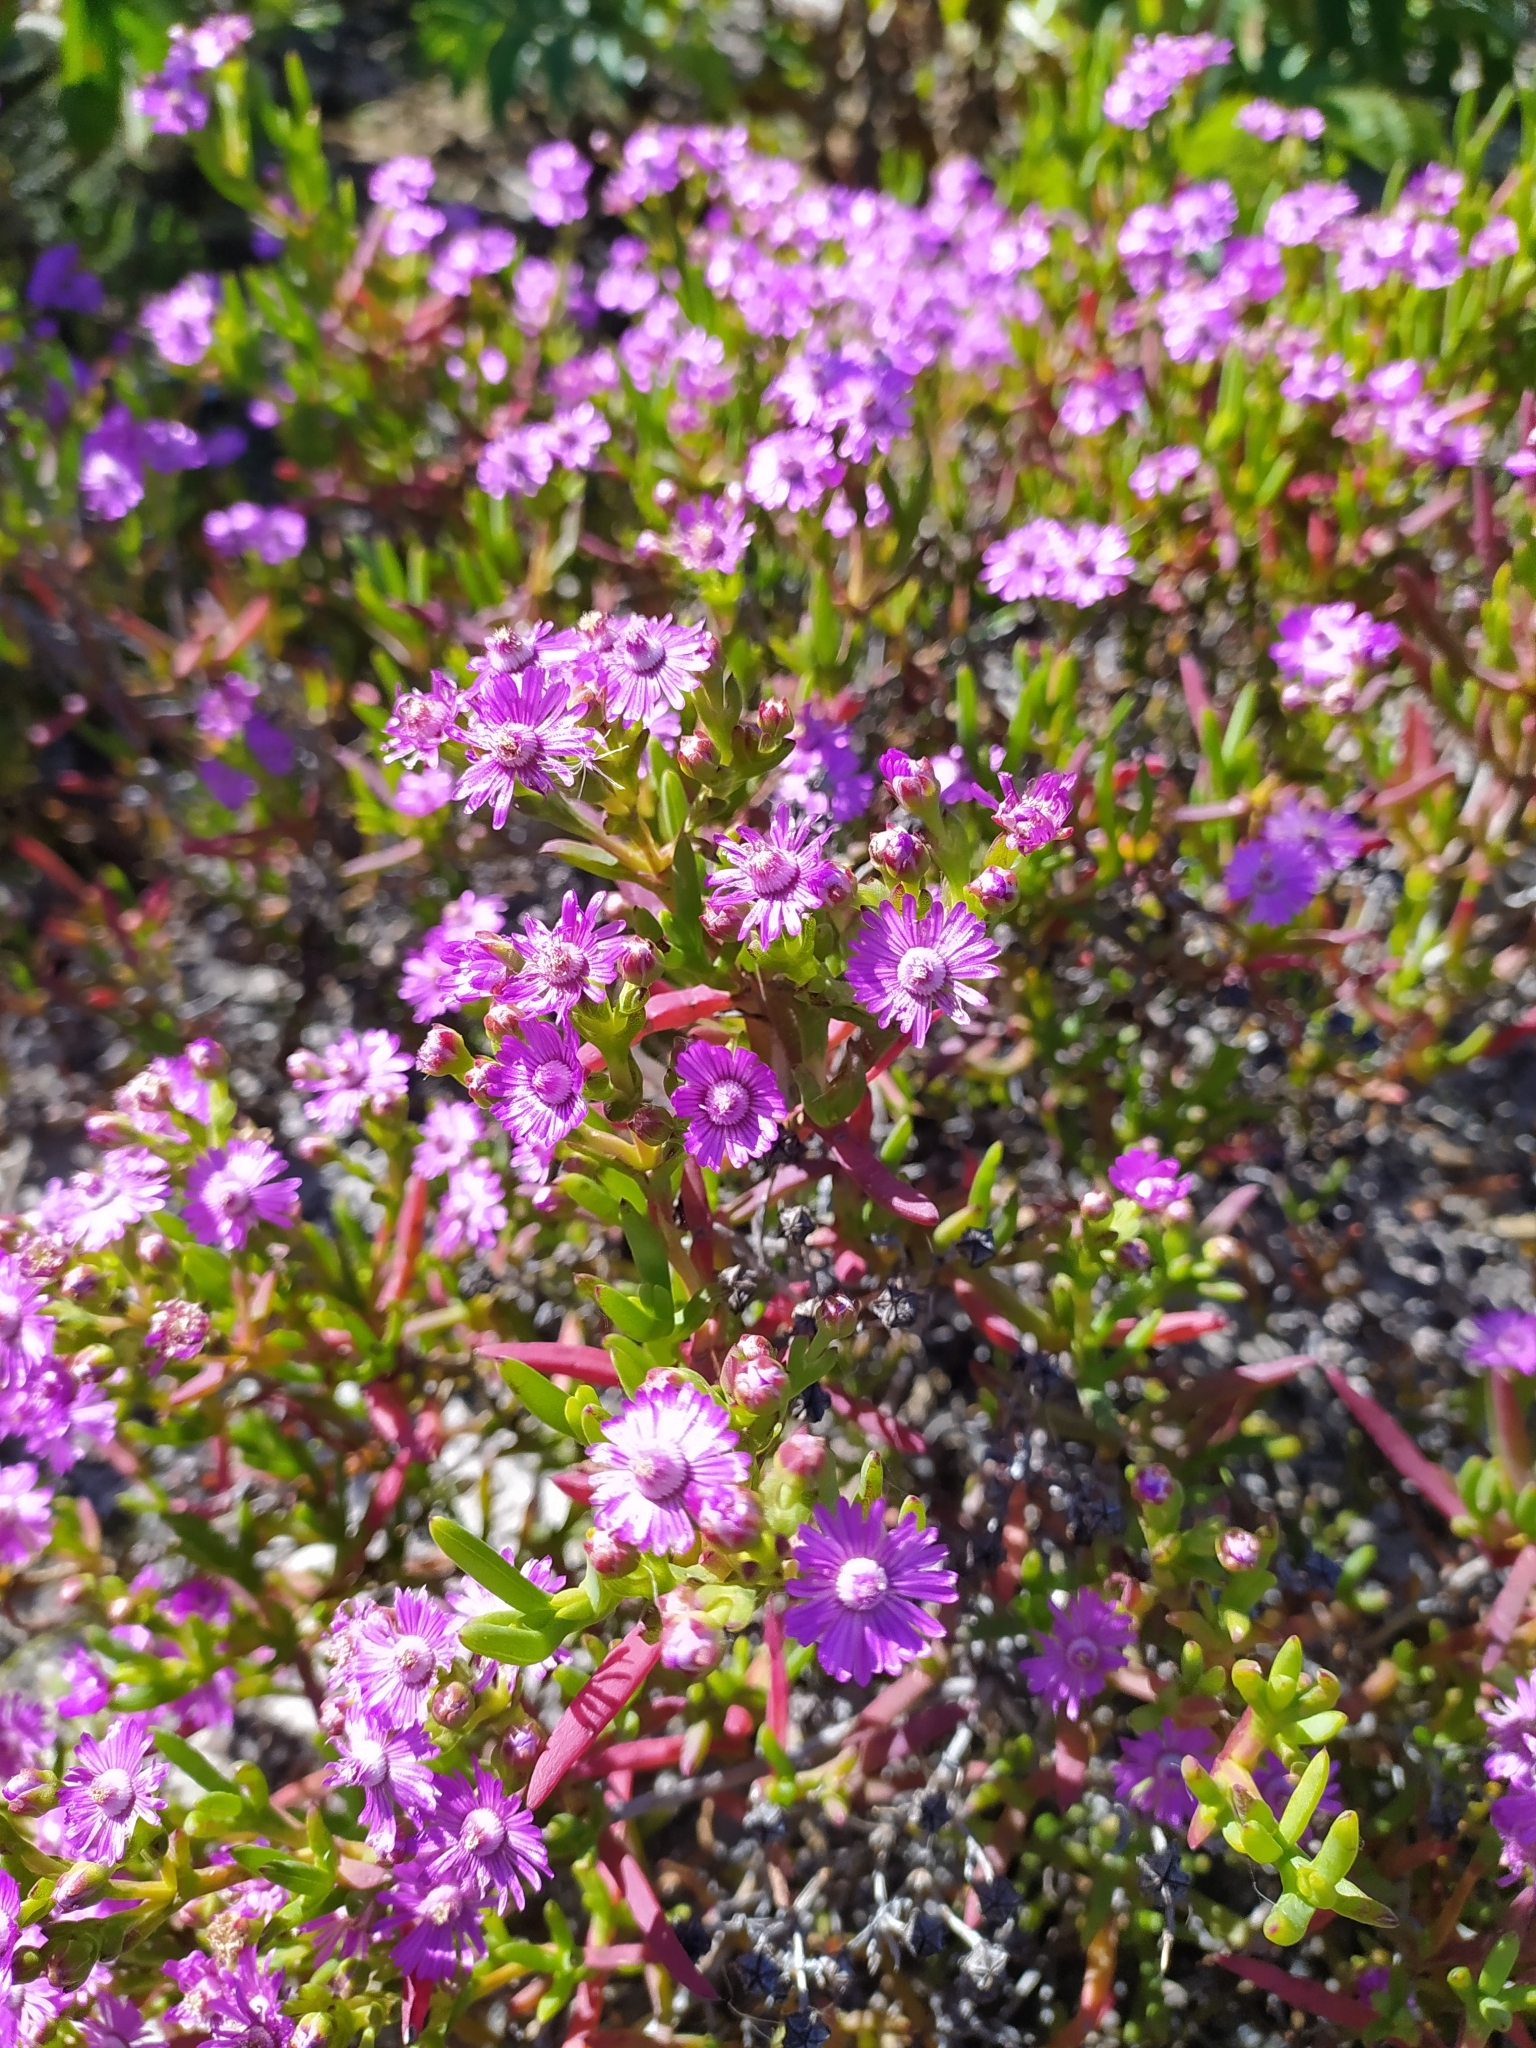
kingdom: Plantae
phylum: Tracheophyta
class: Magnoliopsida
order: Caryophyllales
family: Aizoaceae
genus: Ruschia
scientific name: Ruschia macowanii
